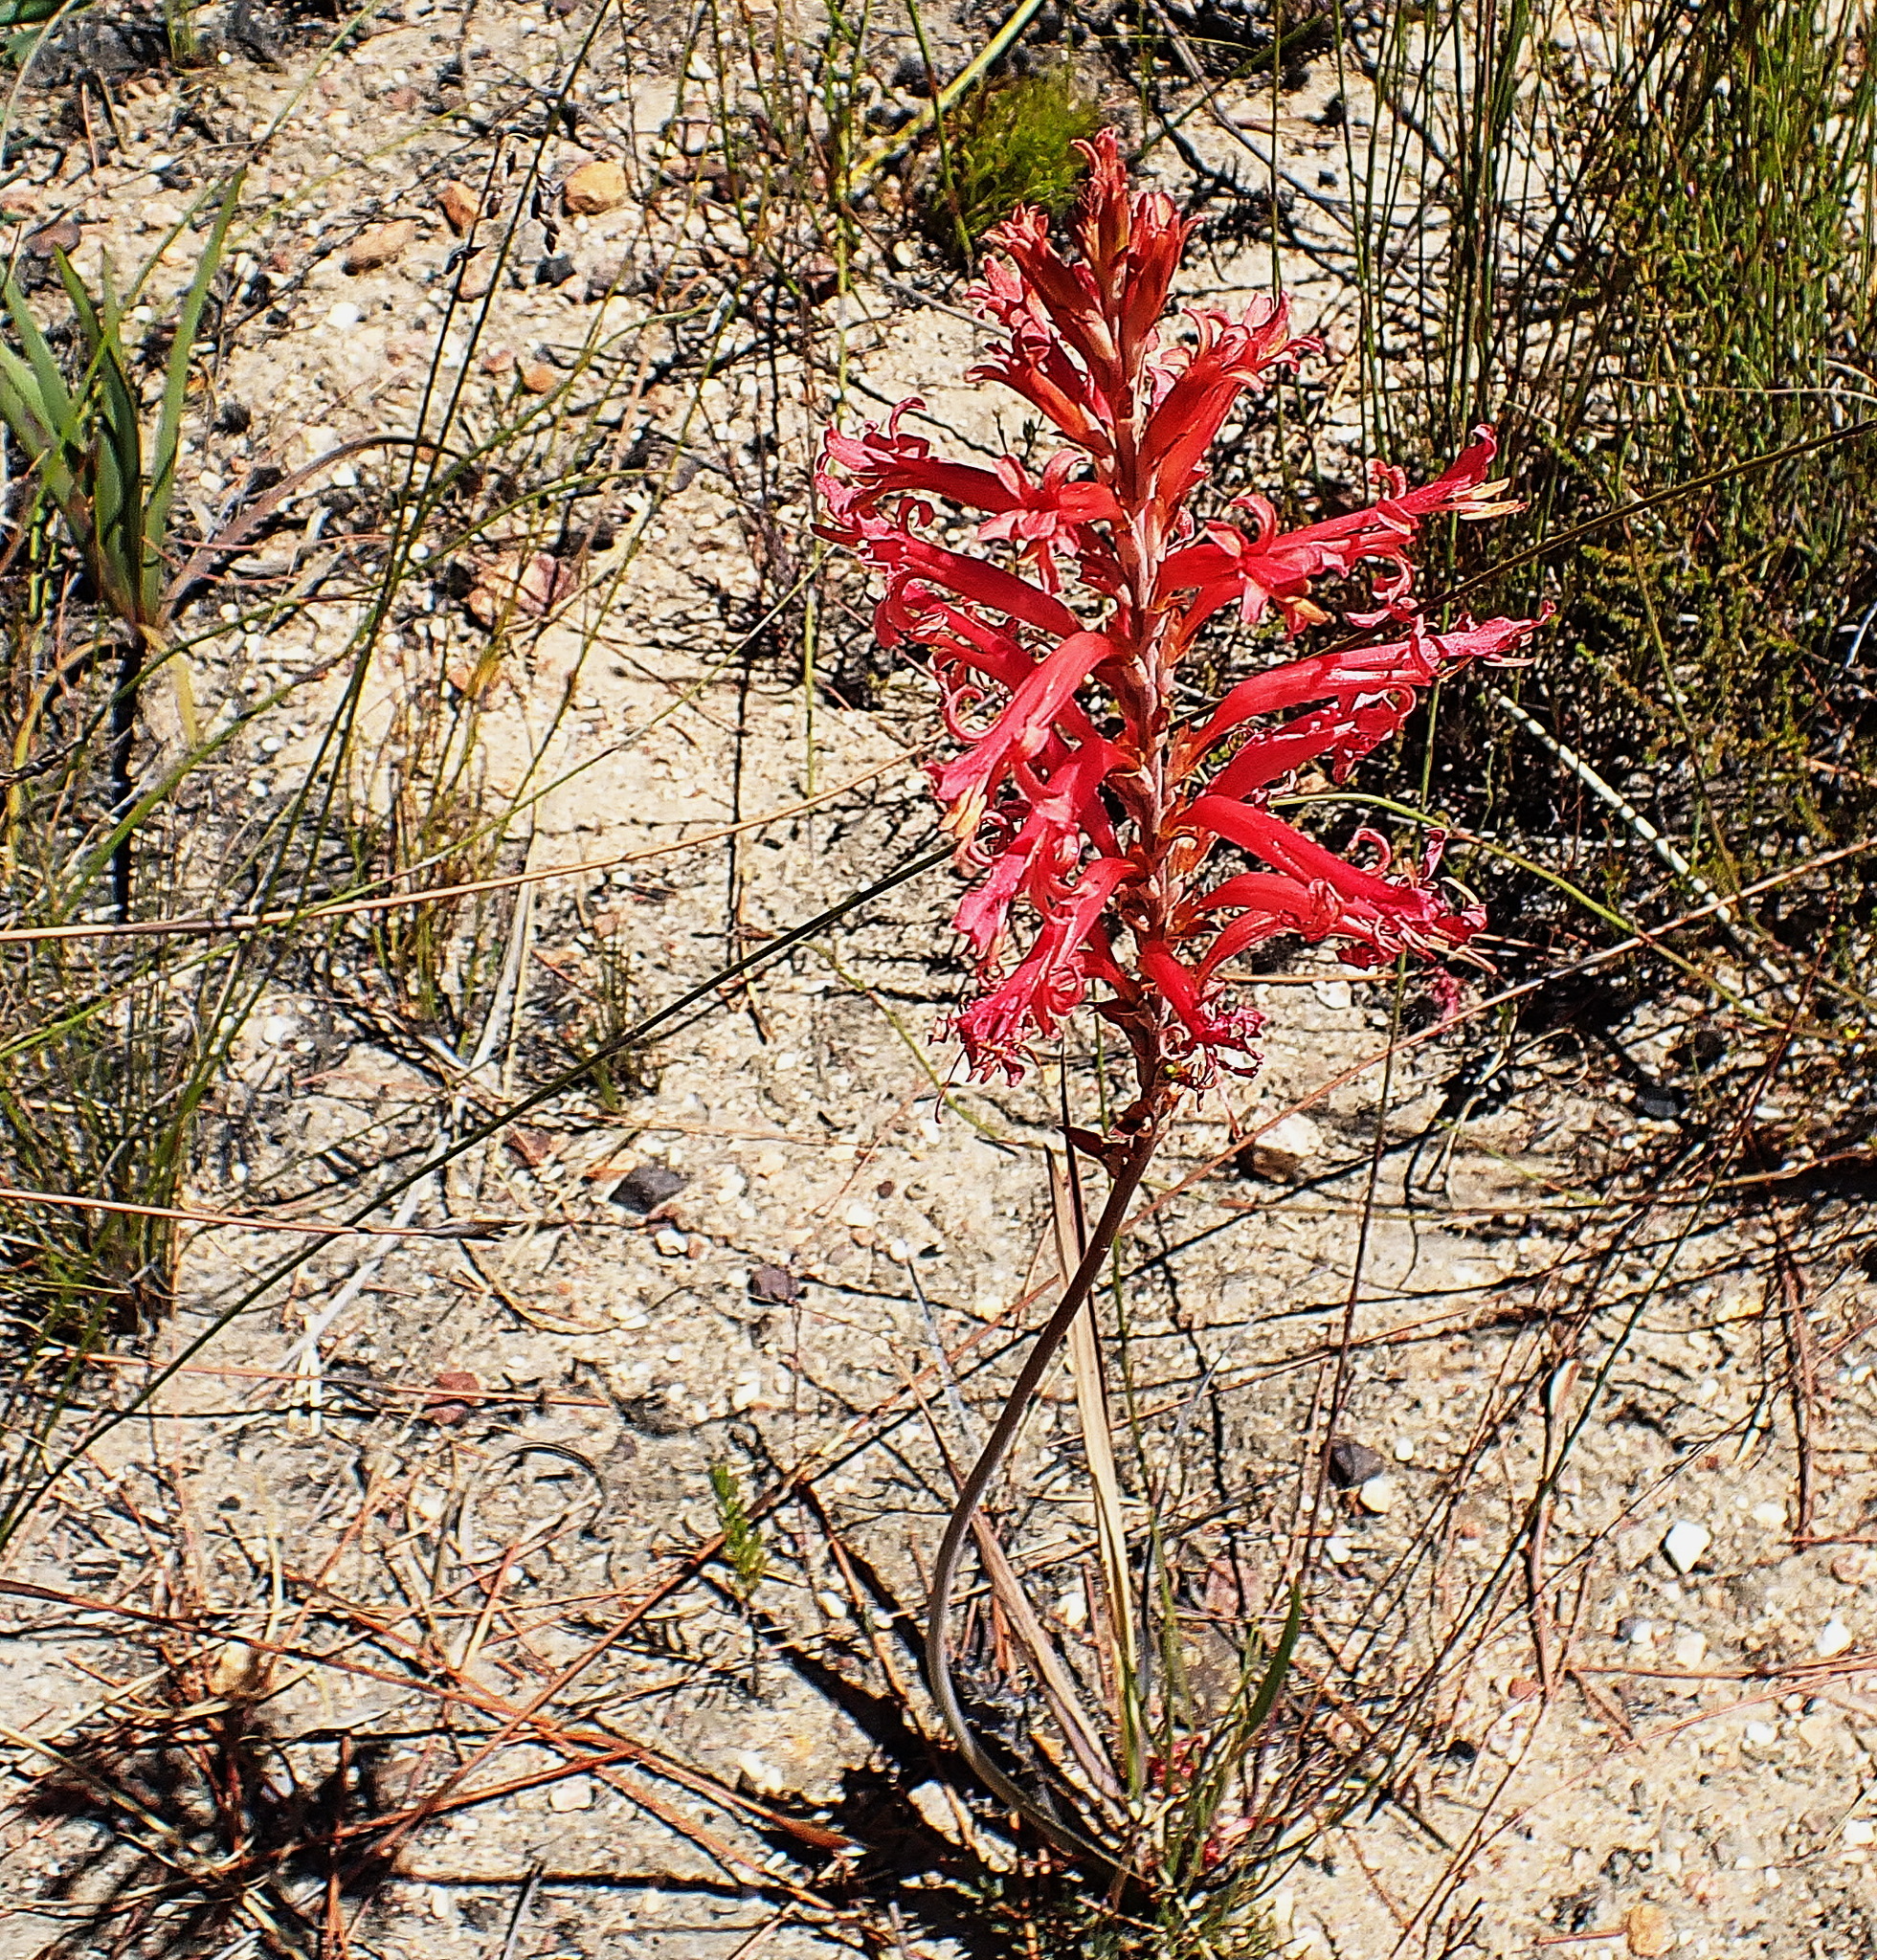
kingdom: Plantae
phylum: Tracheophyta
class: Liliopsida
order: Asparagales
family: Iridaceae
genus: Tritoniopsis
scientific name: Tritoniopsis antholyza
